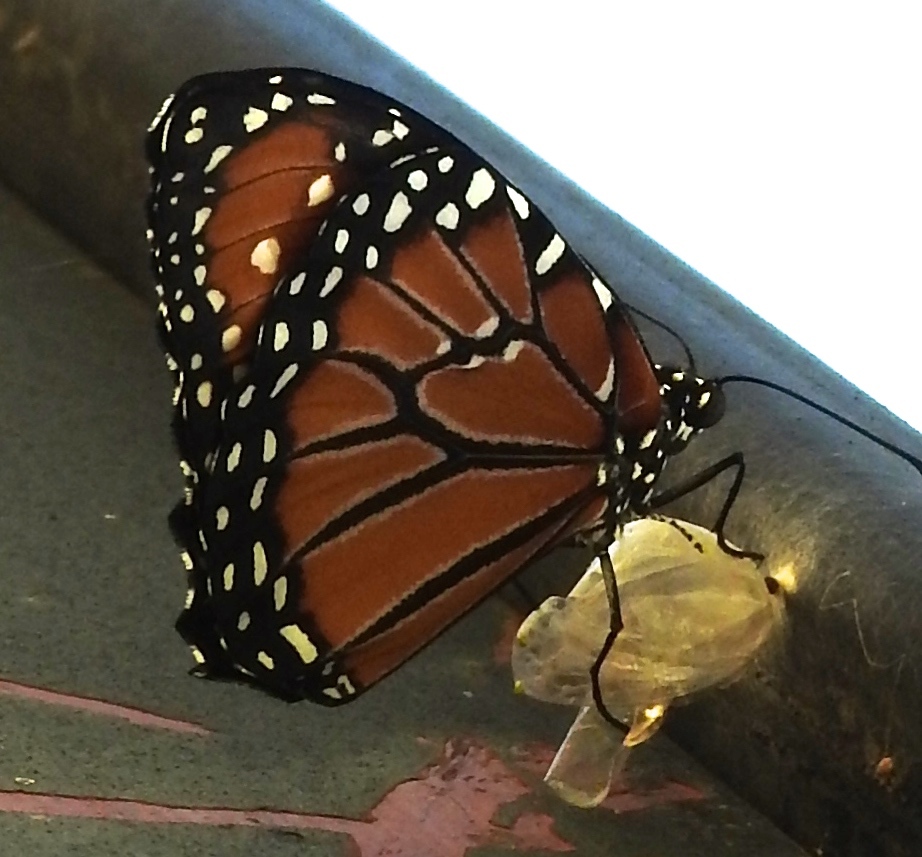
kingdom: Animalia
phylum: Arthropoda
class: Insecta
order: Lepidoptera
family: Nymphalidae
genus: Danaus
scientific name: Danaus gilippus
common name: Queen
